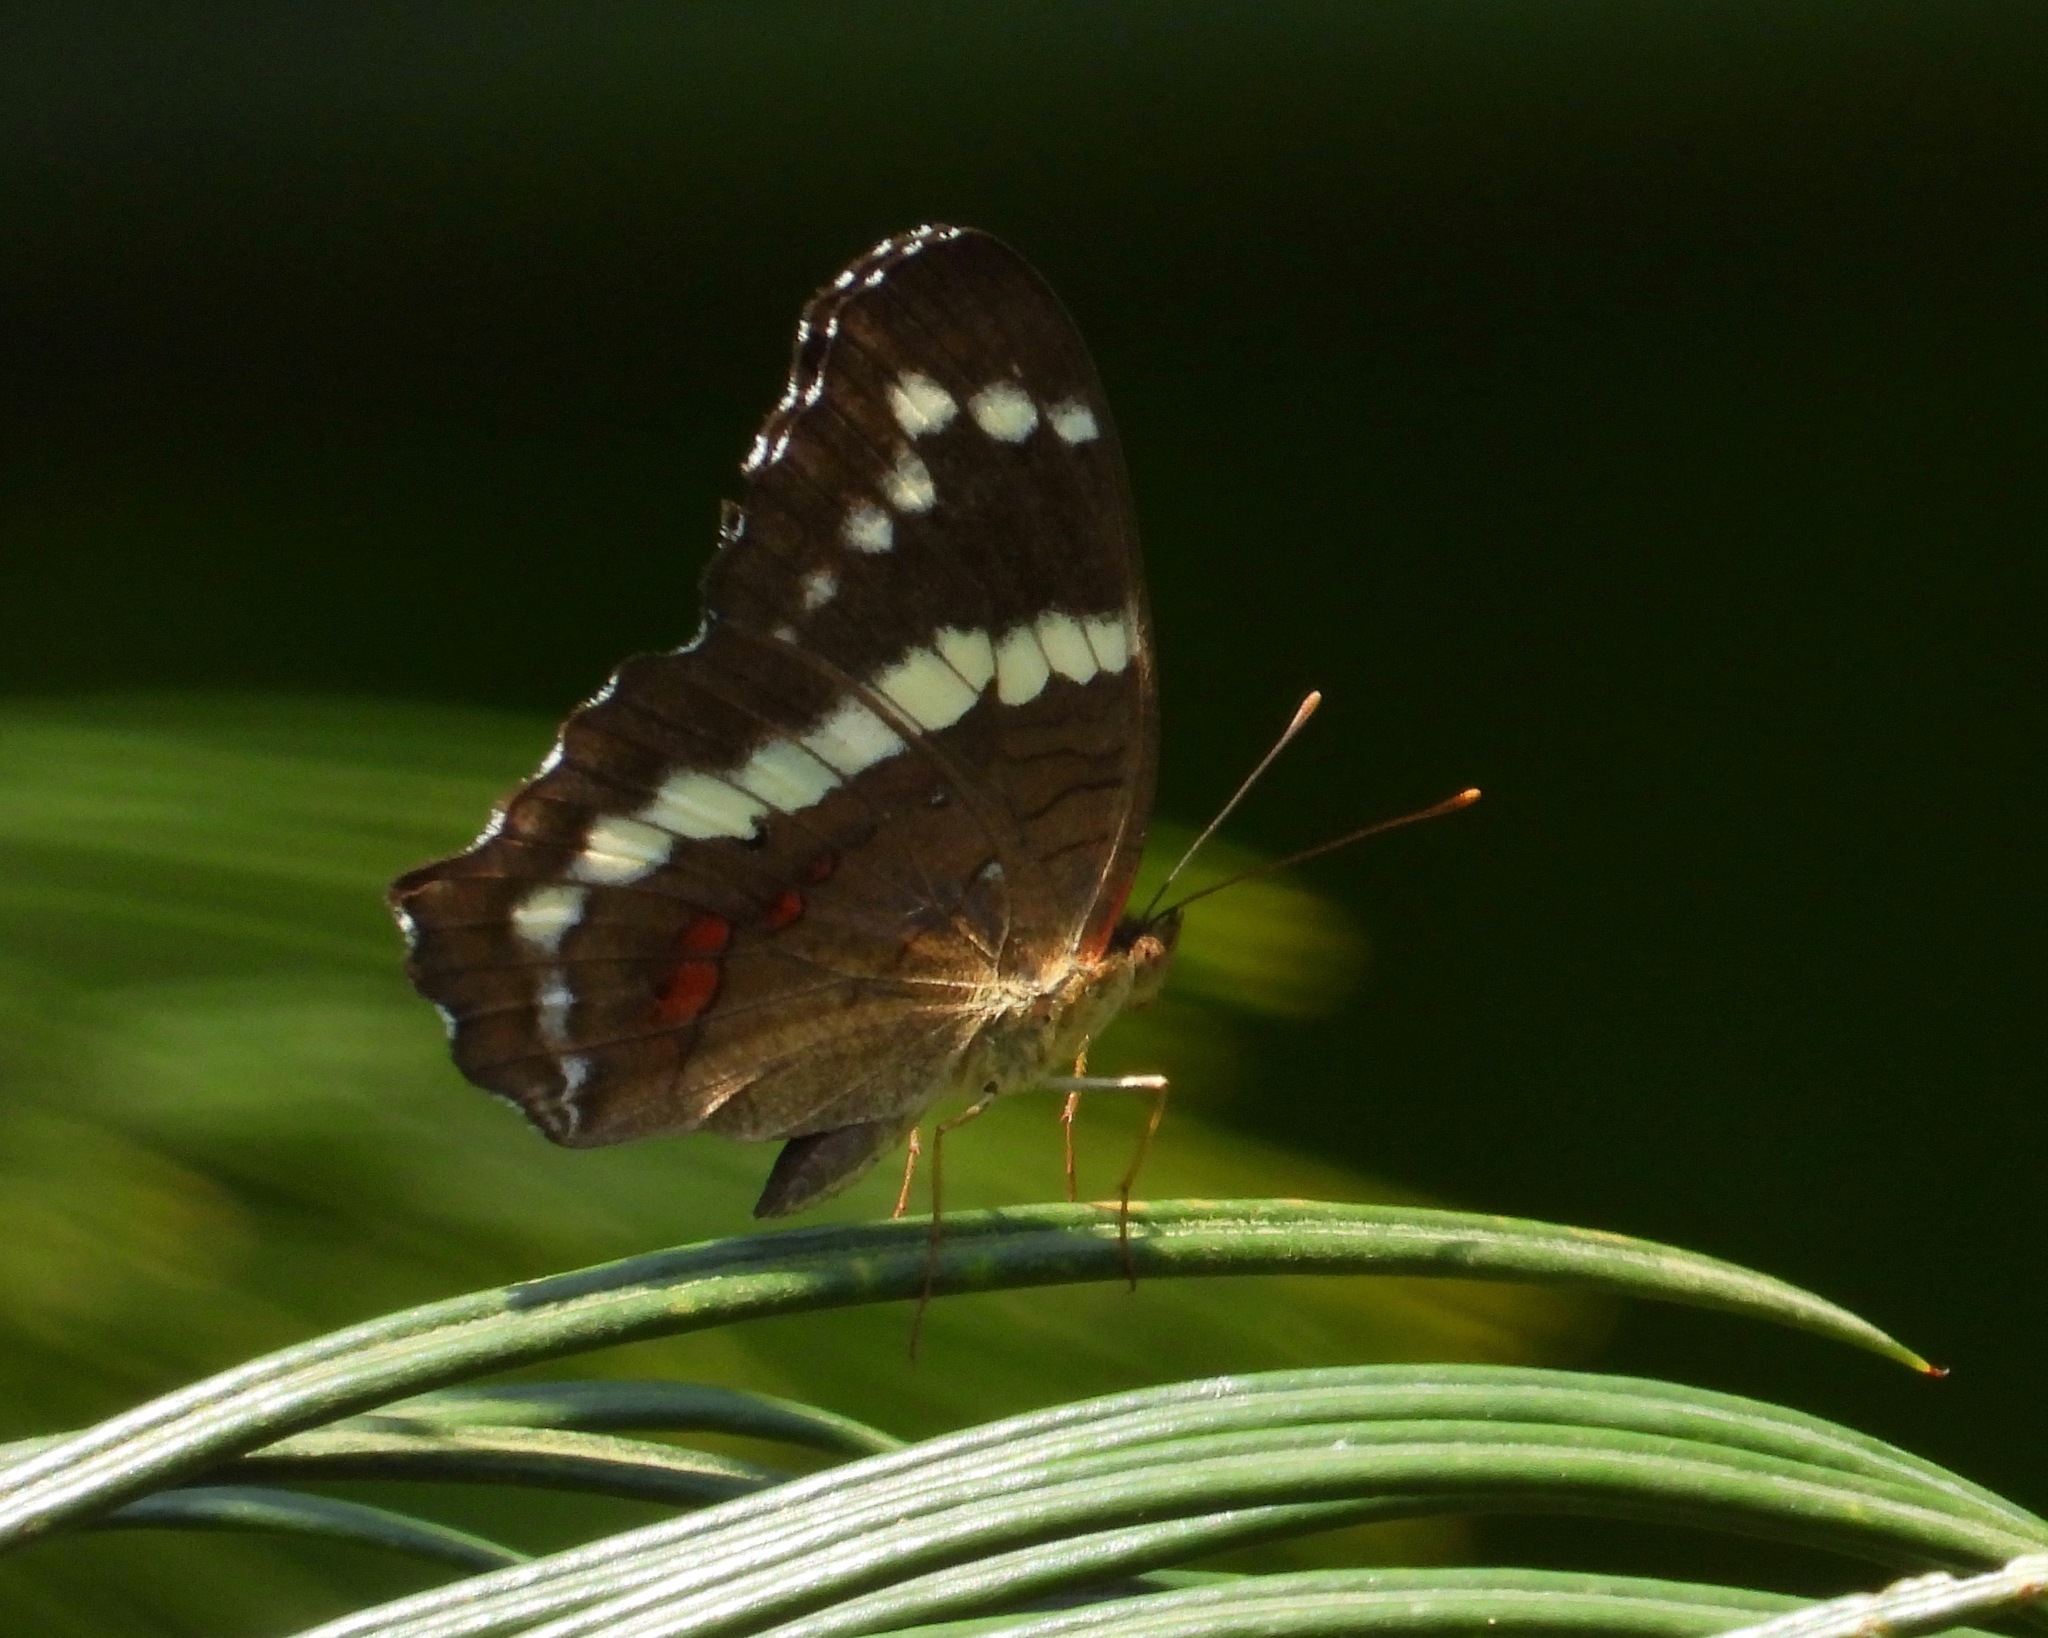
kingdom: Animalia
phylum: Arthropoda
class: Insecta
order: Lepidoptera
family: Nymphalidae
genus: Anartia
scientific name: Anartia fatima
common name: Banded peacock
